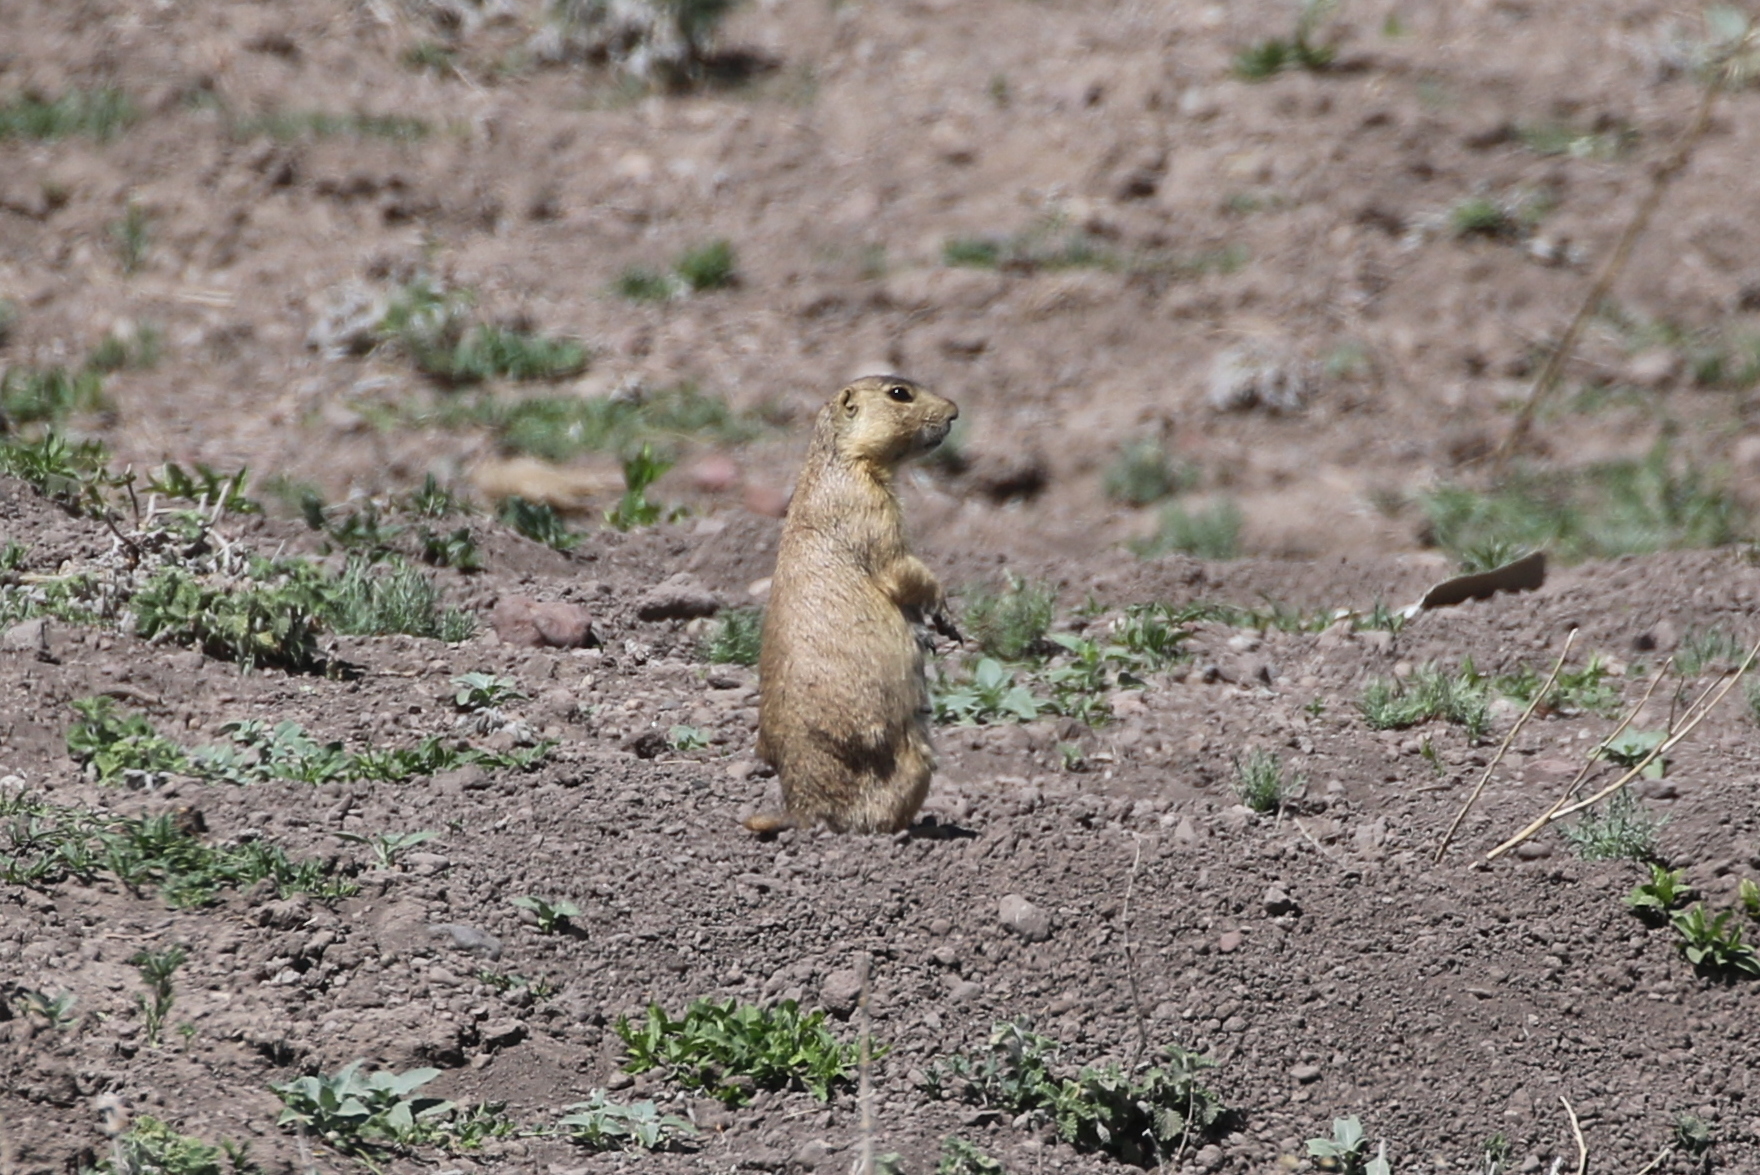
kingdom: Animalia
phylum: Chordata
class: Mammalia
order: Rodentia
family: Sciuridae
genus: Cynomys
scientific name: Cynomys gunnisoni
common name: Gunnison's prairie dog
